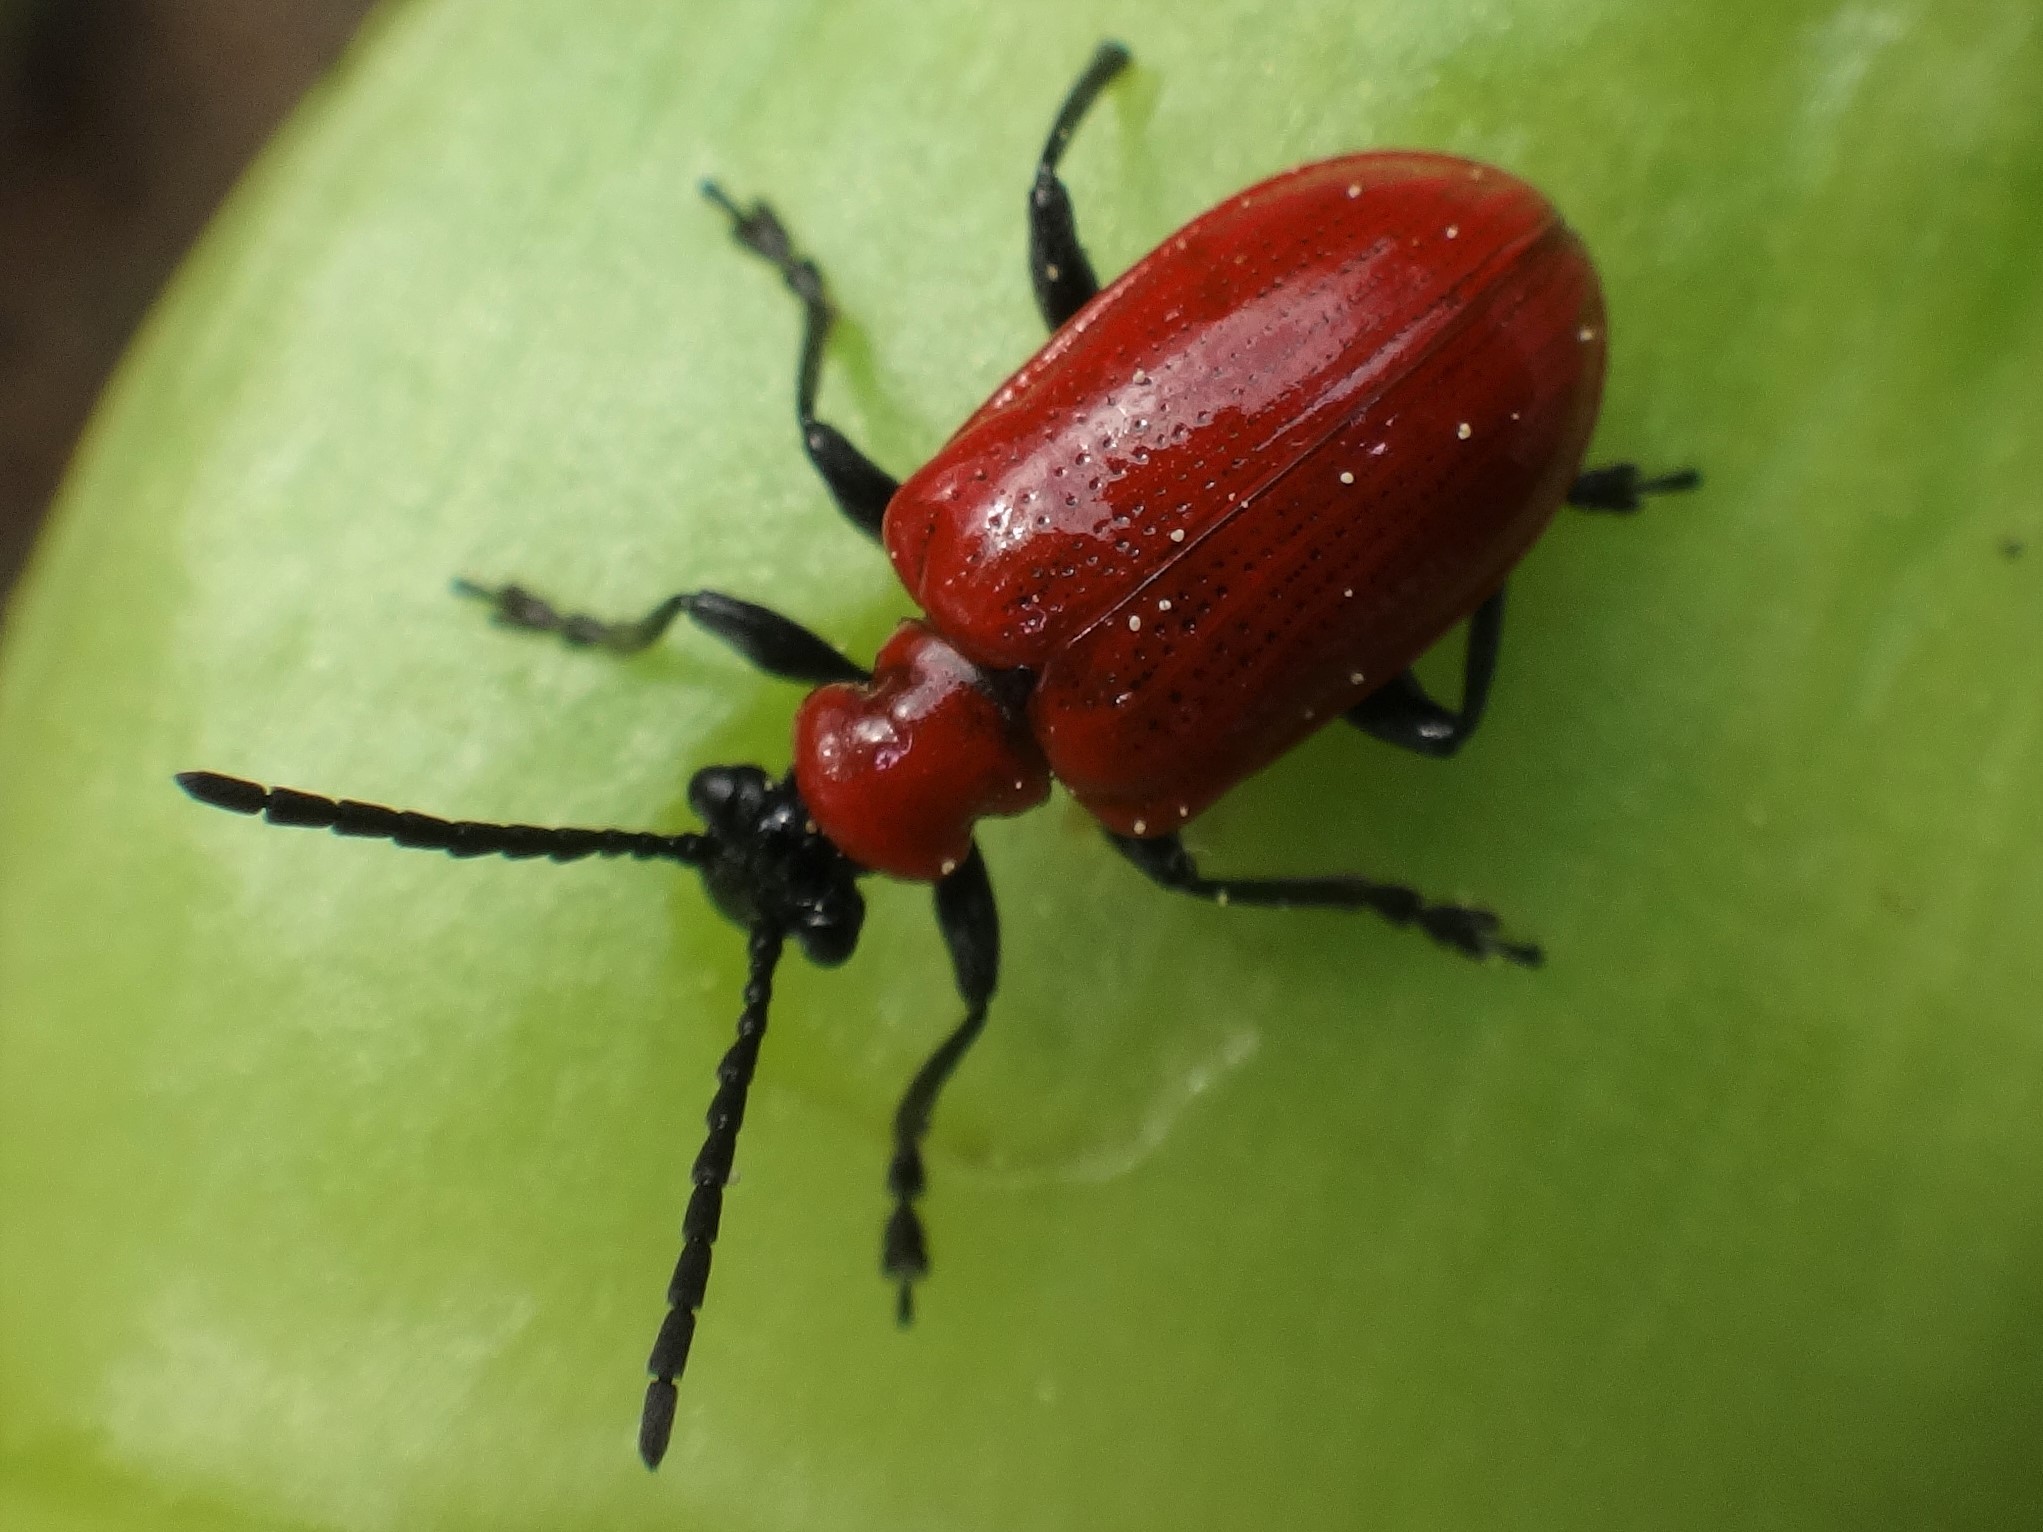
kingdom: Animalia
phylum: Arthropoda
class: Insecta
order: Coleoptera
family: Chrysomelidae
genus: Lilioceris
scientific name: Lilioceris lilii
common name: Lily beetle
